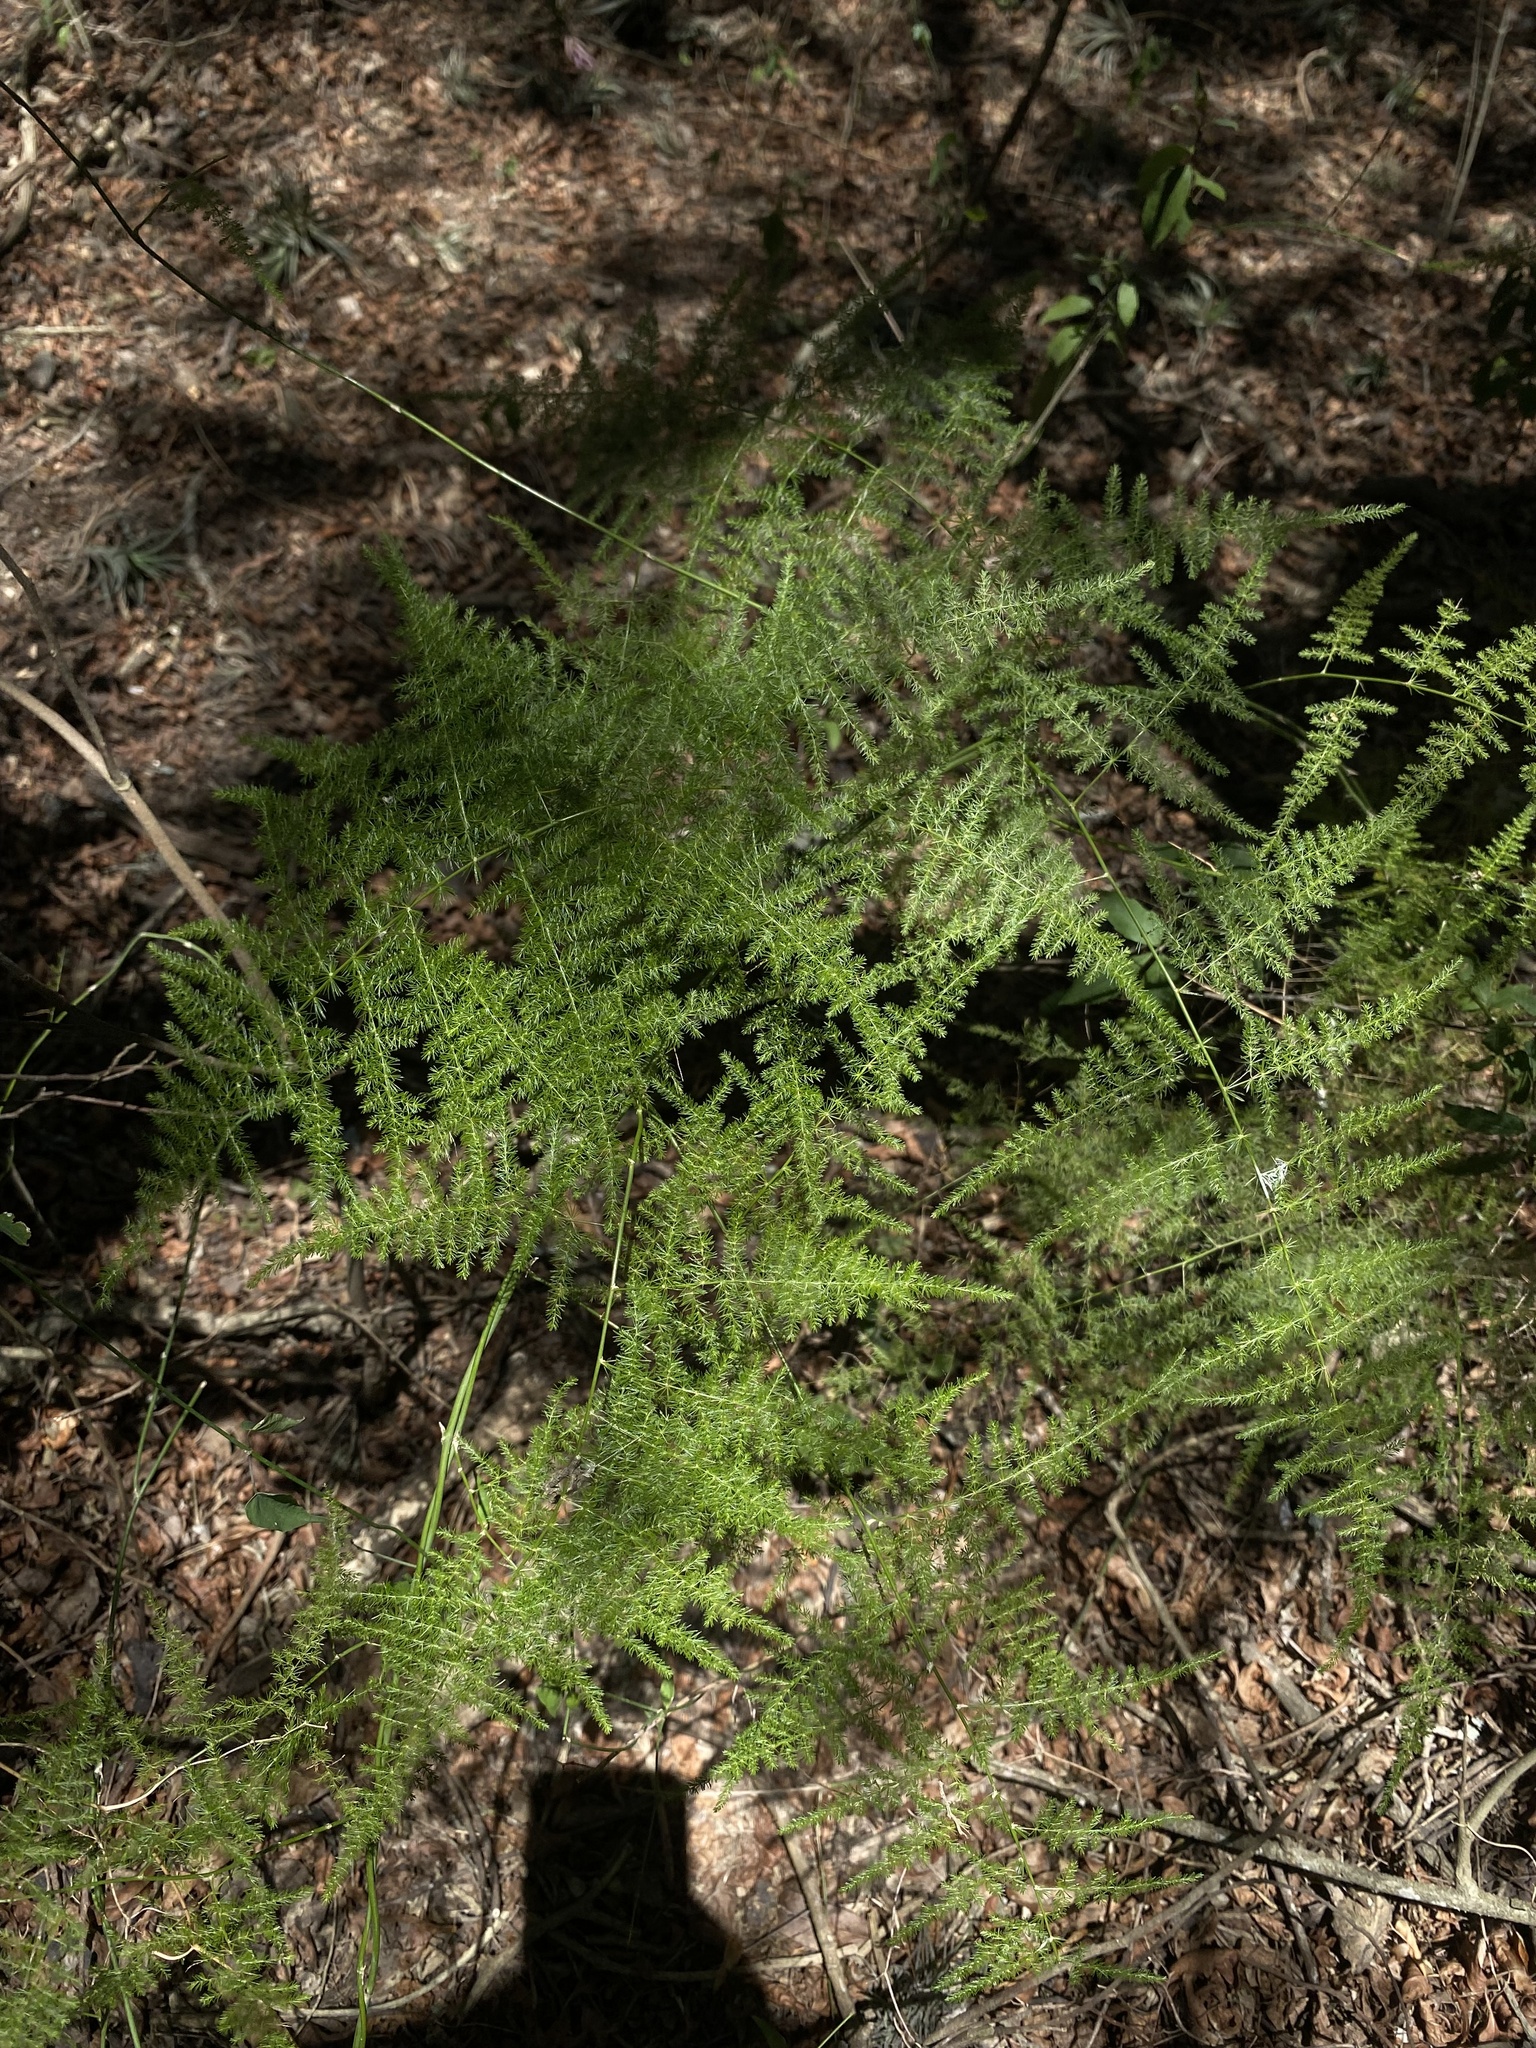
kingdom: Plantae
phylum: Tracheophyta
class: Liliopsida
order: Asparagales
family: Asparagaceae
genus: Asparagus
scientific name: Asparagus setaceus
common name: Common asparagus fern
